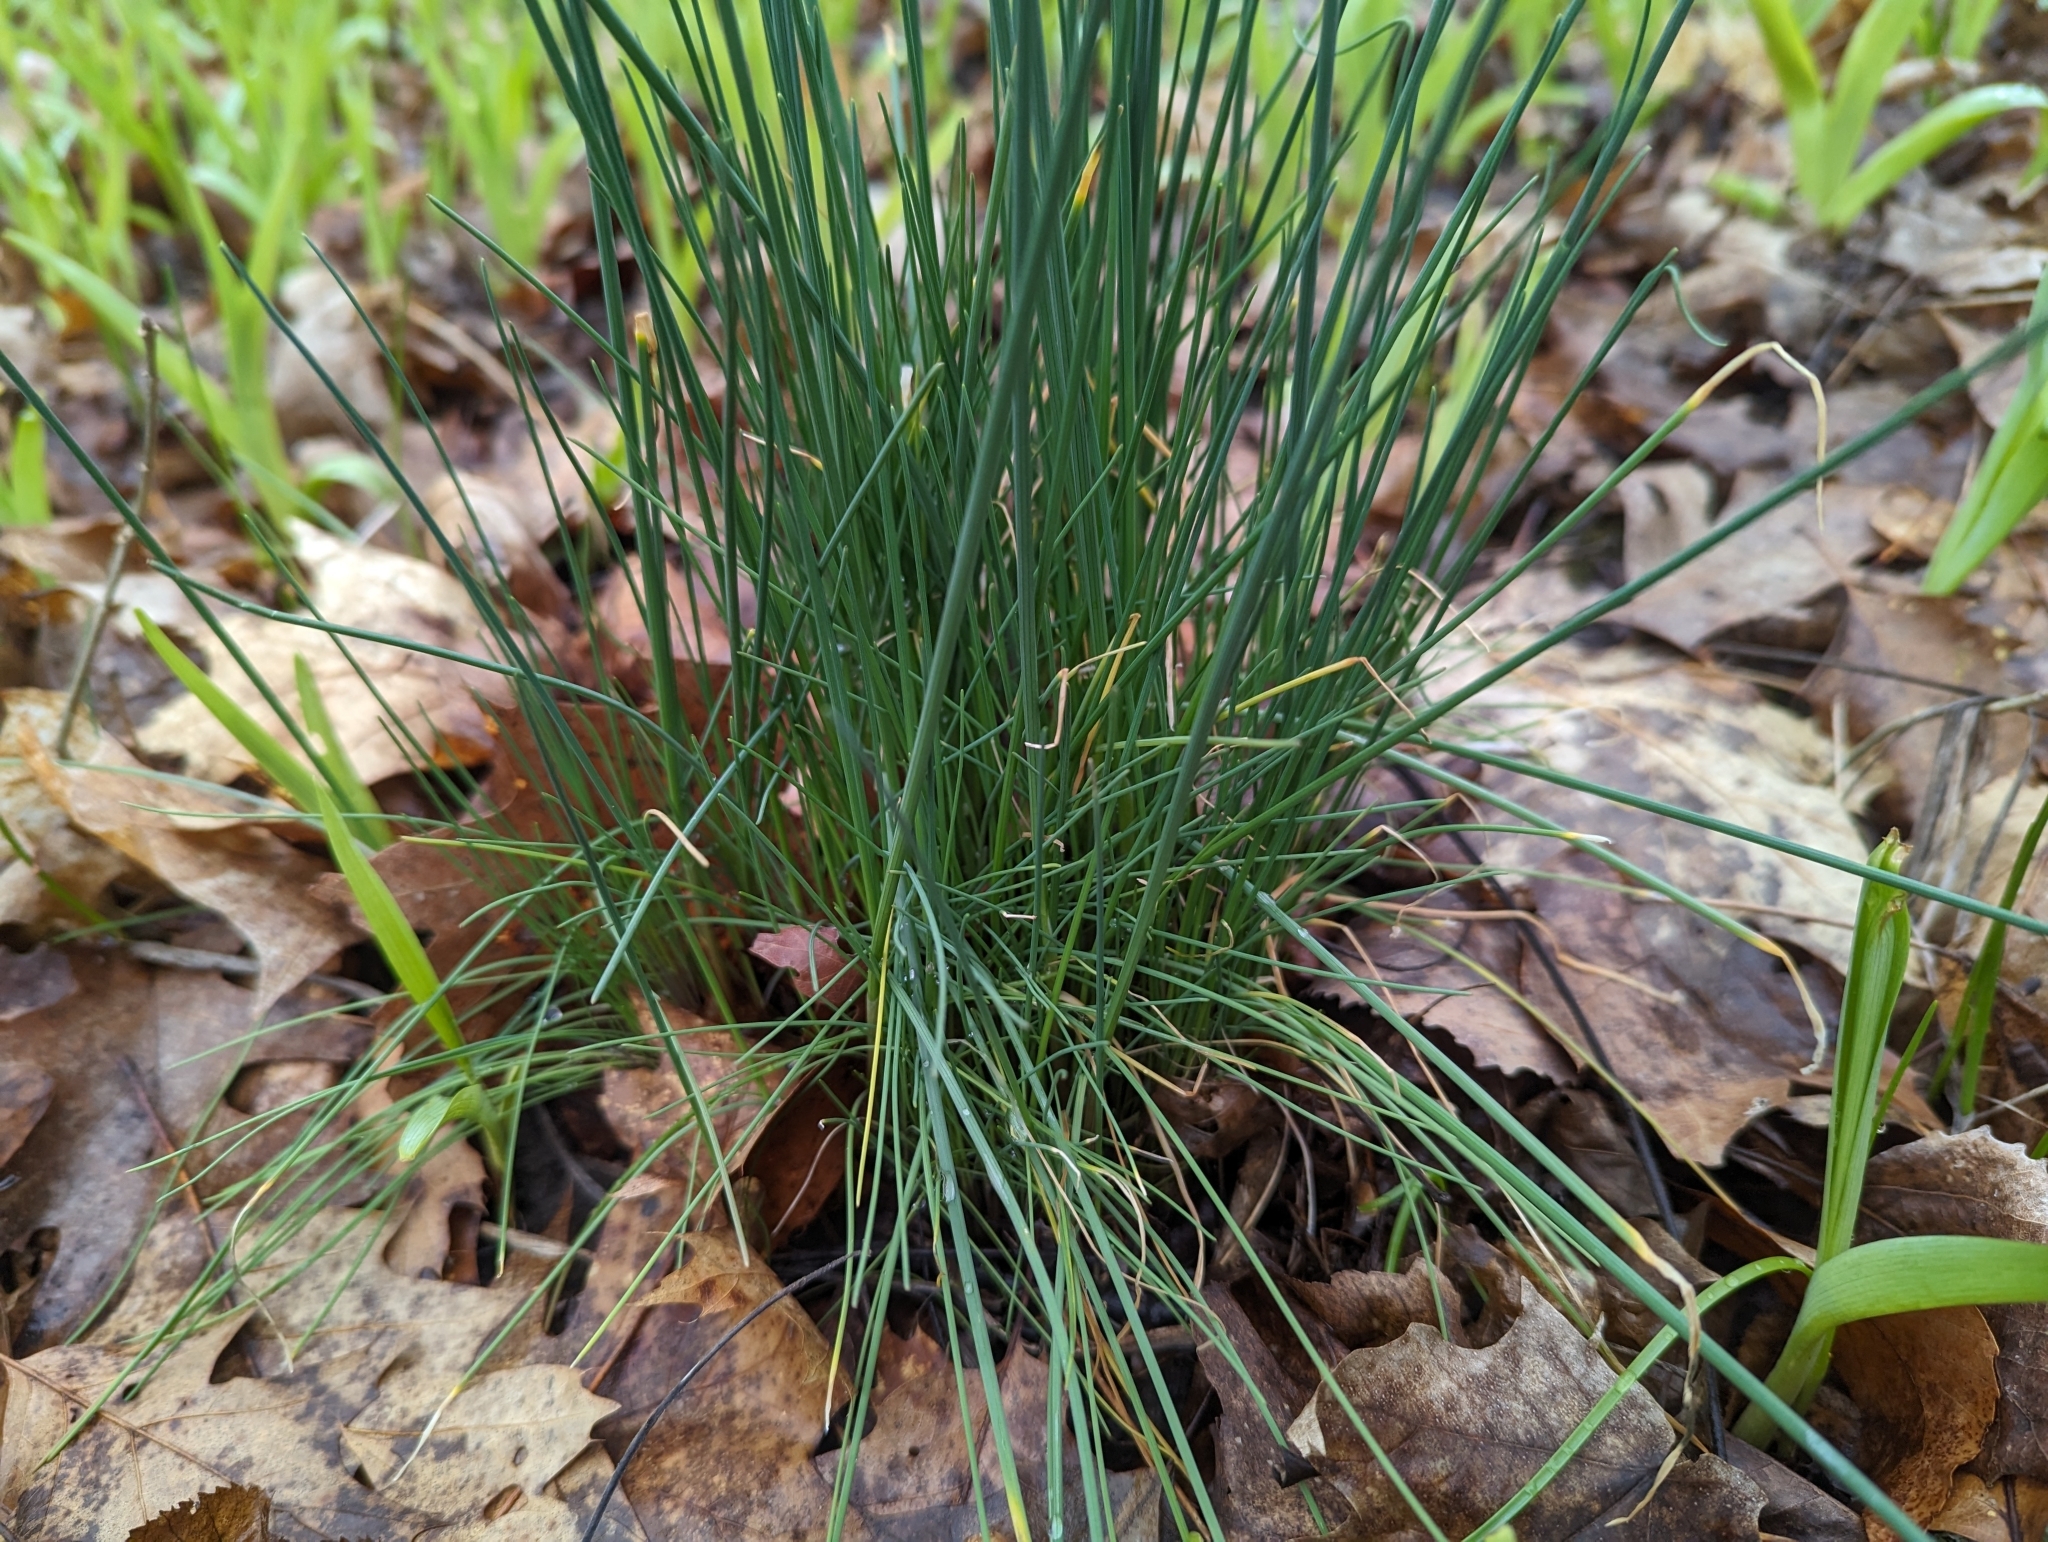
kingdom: Plantae
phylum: Tracheophyta
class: Liliopsida
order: Asparagales
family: Amaryllidaceae
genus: Allium
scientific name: Allium vineale
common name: Crow garlic
